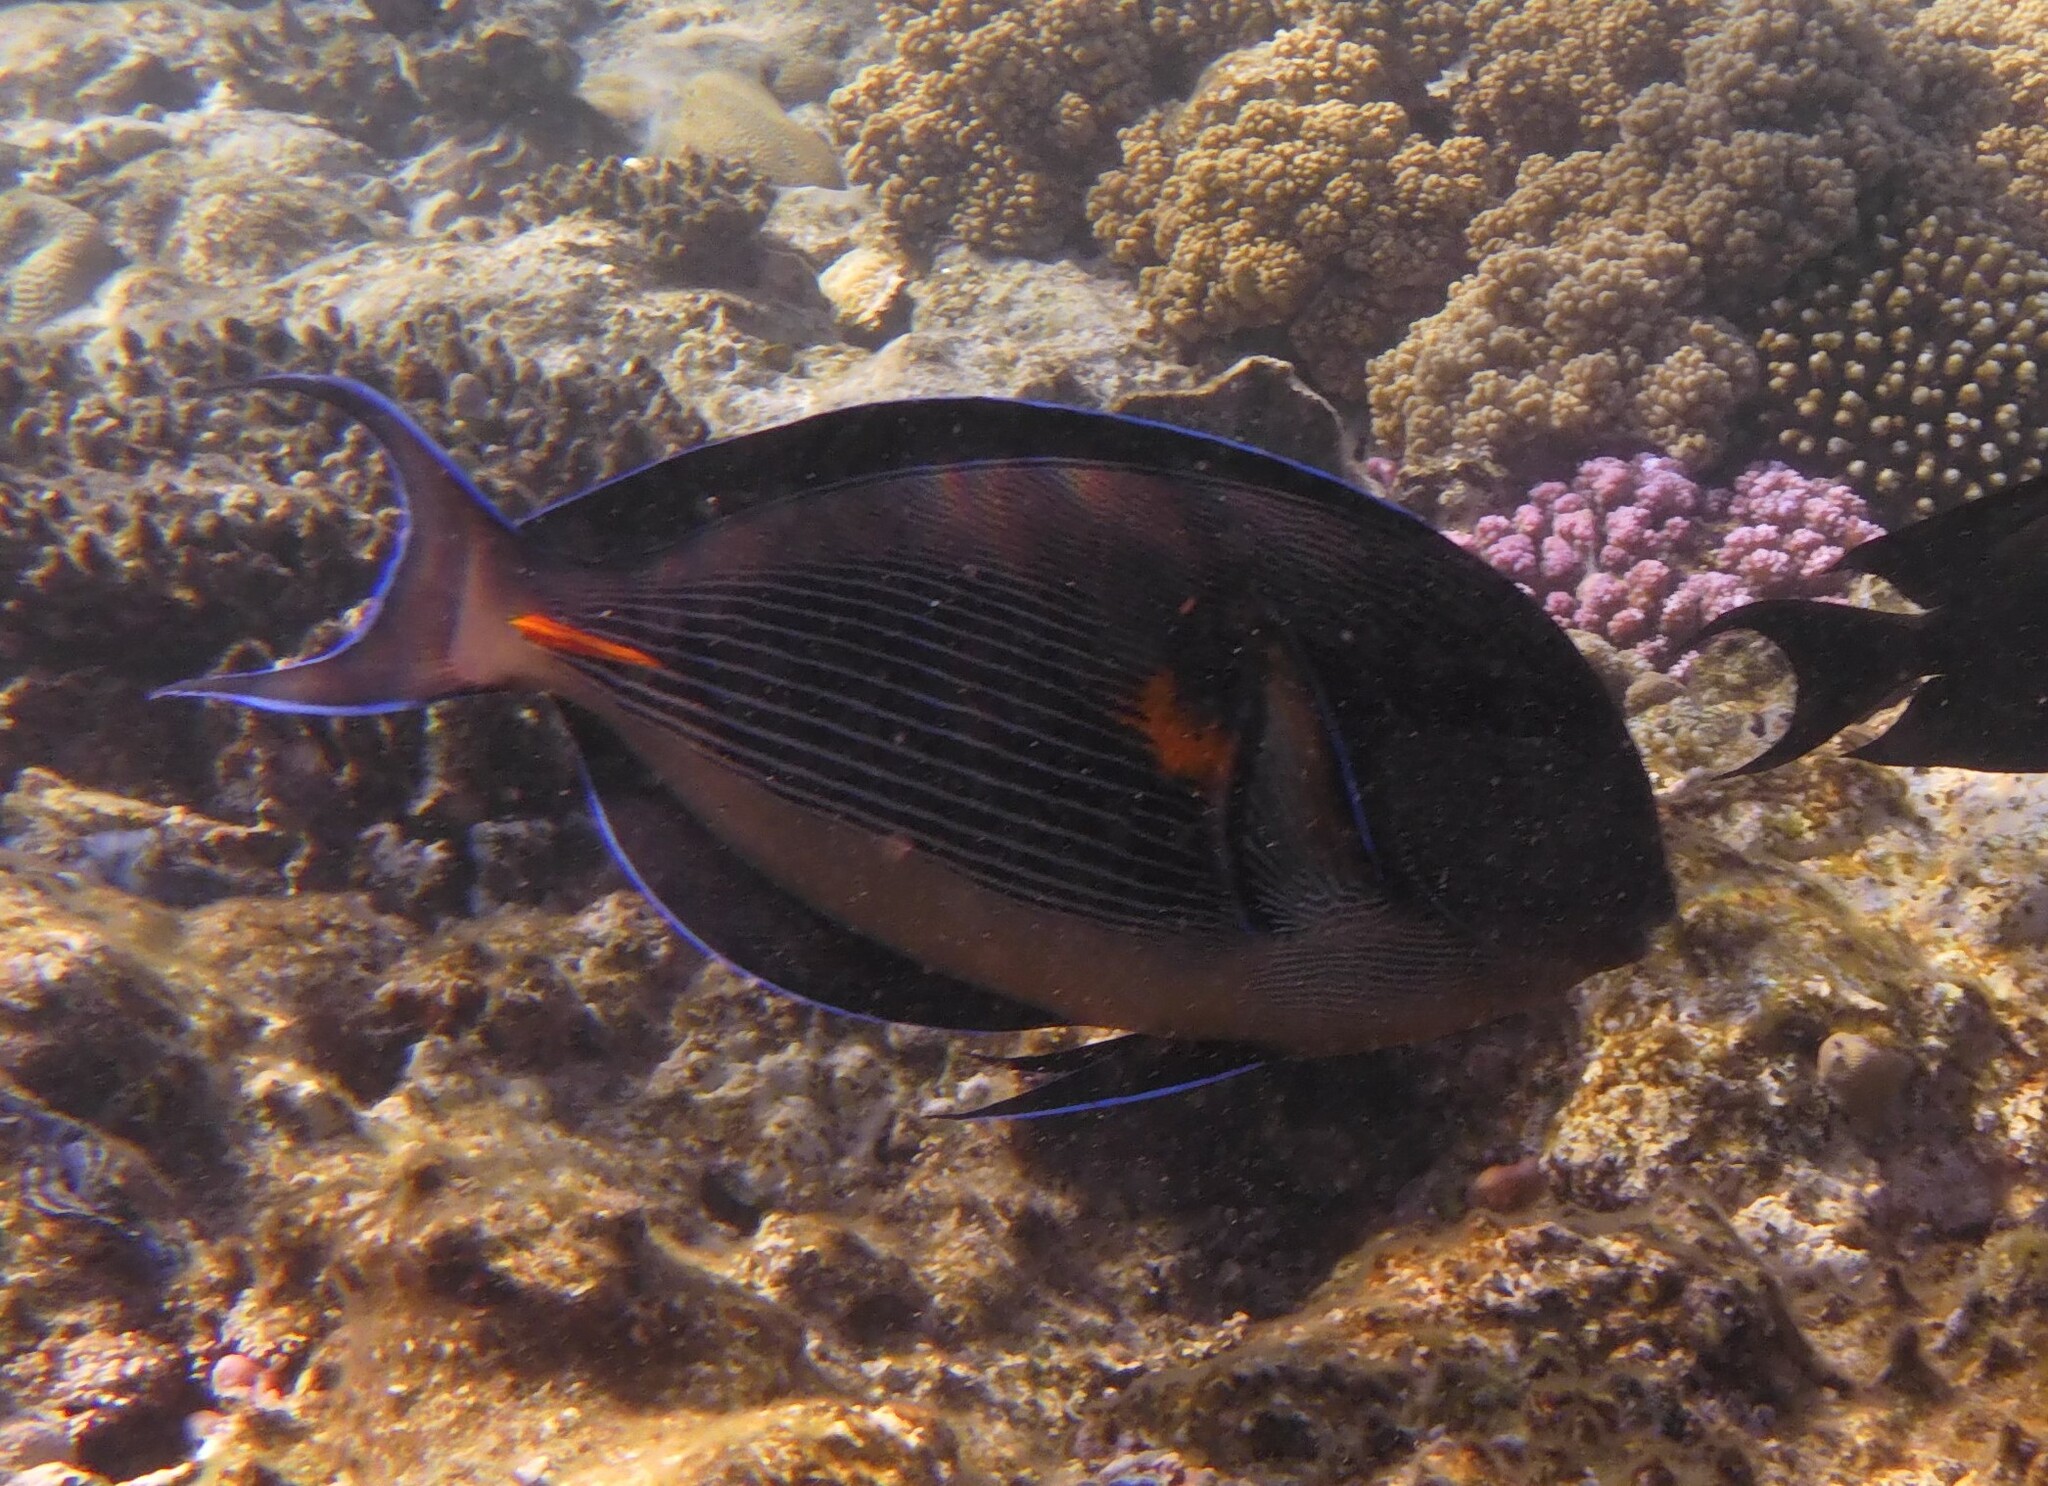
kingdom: Animalia
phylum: Chordata
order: Perciformes
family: Acanthuridae
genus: Acanthurus
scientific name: Acanthurus sohal
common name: Red sea surgeonfish
